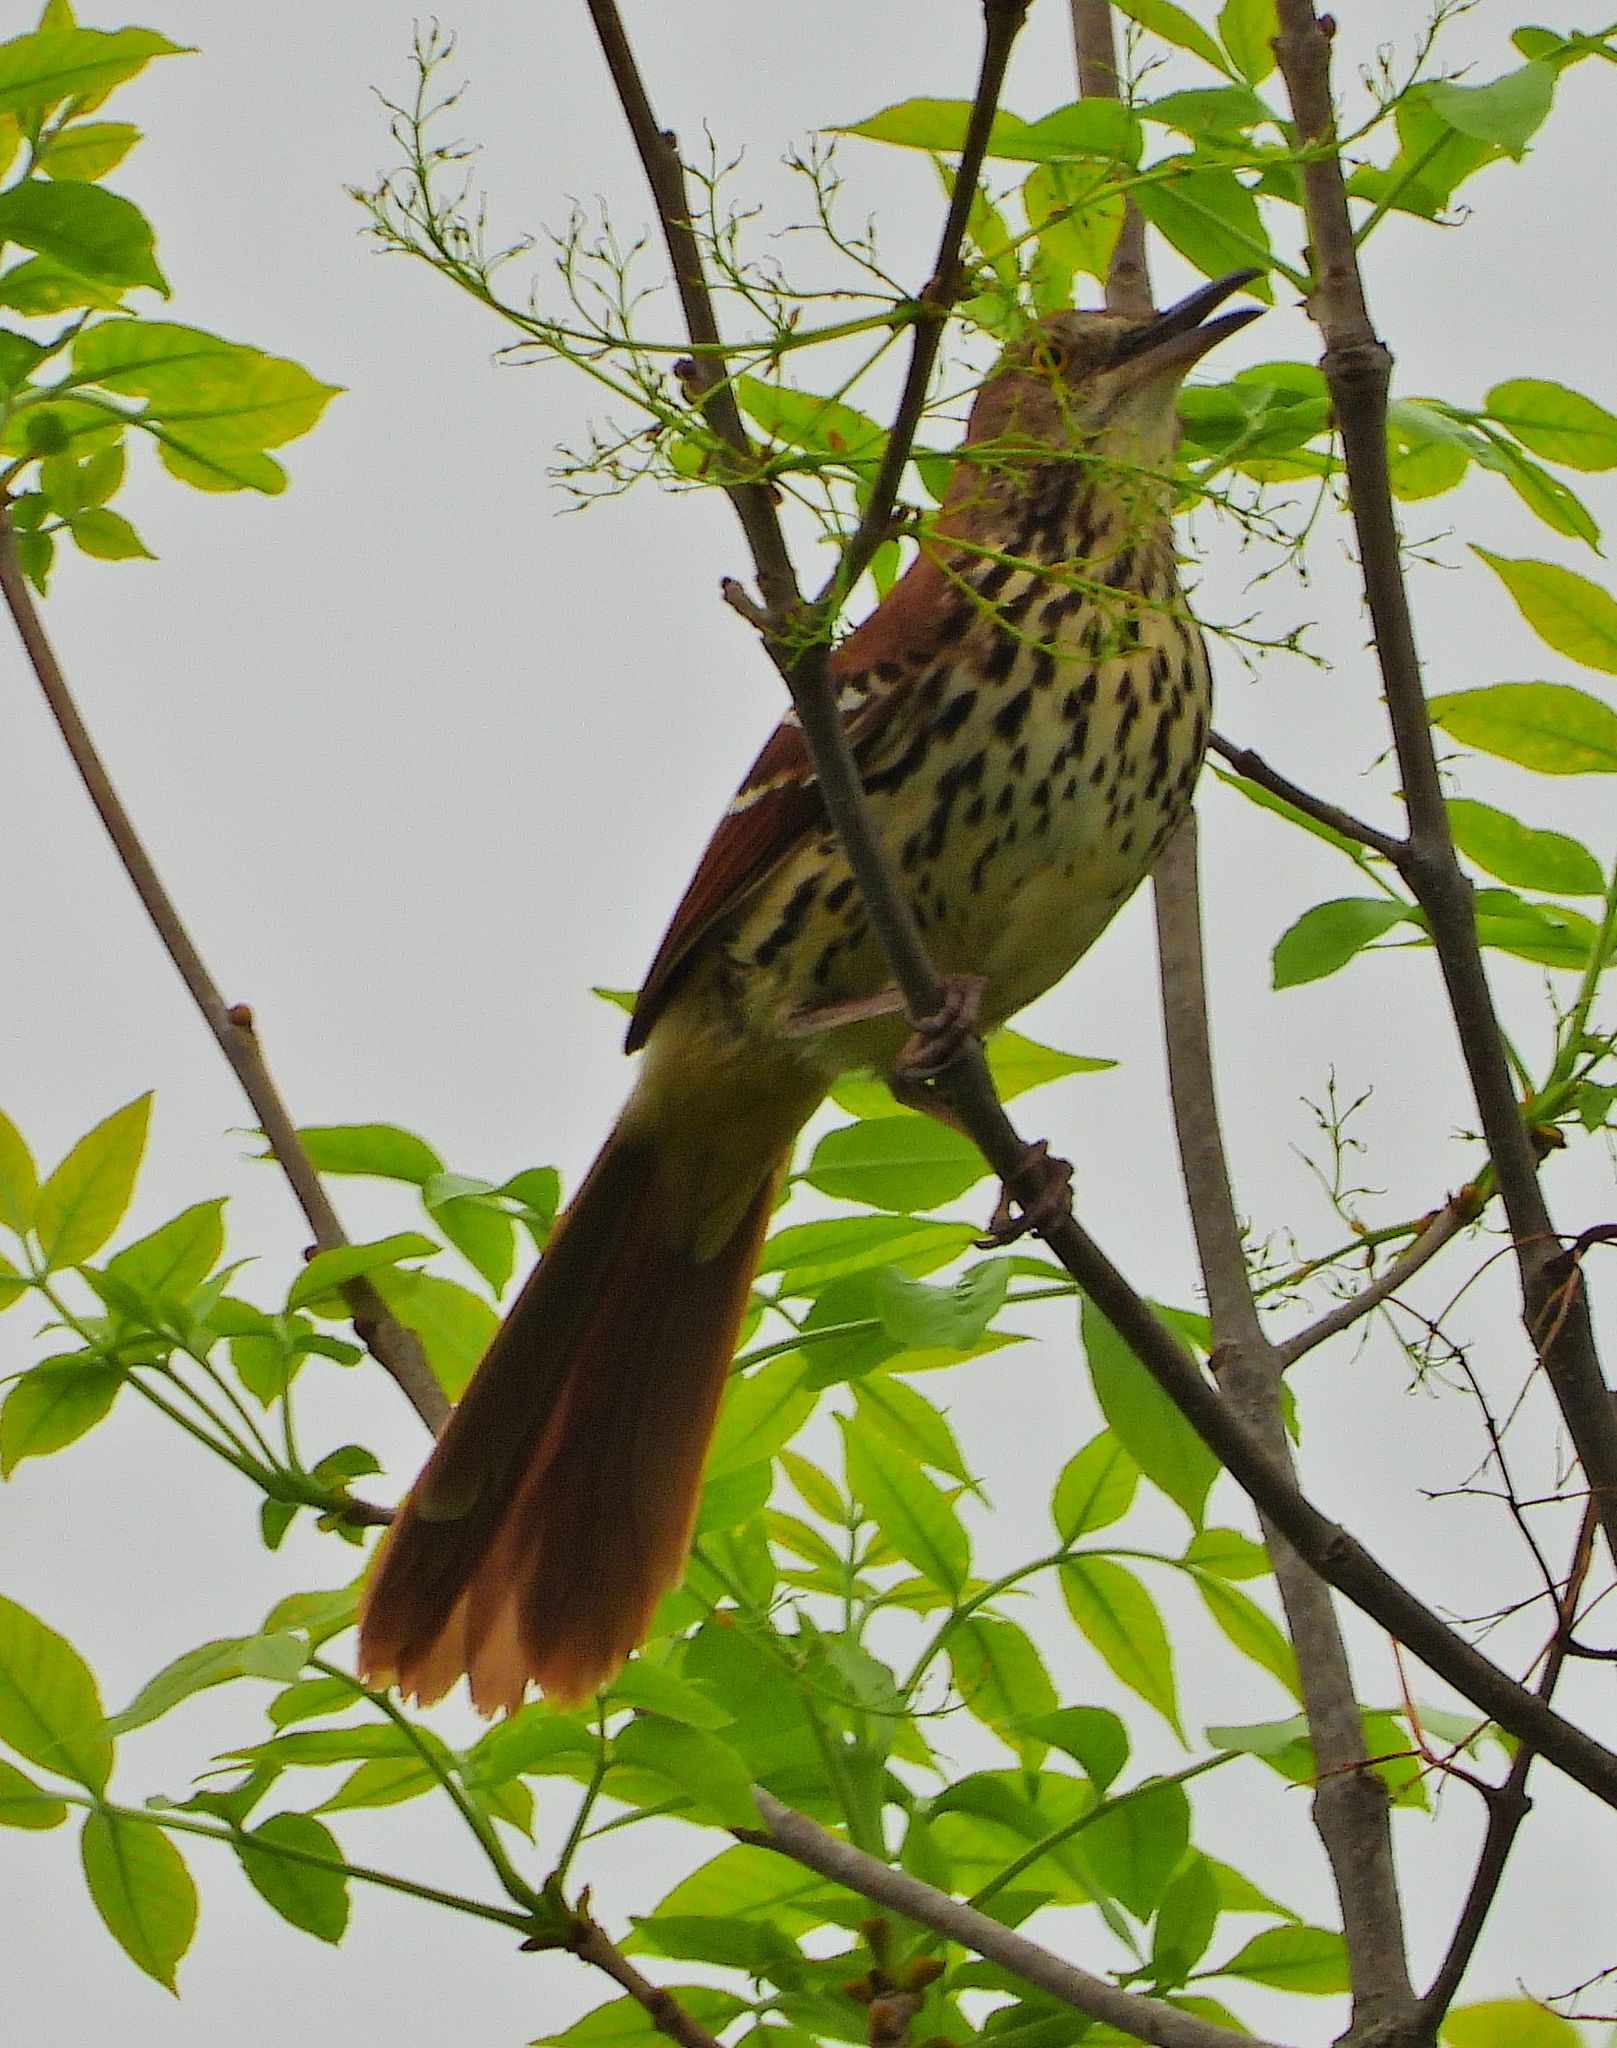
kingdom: Animalia
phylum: Chordata
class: Aves
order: Passeriformes
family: Mimidae
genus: Toxostoma
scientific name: Toxostoma rufum
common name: Brown thrasher
